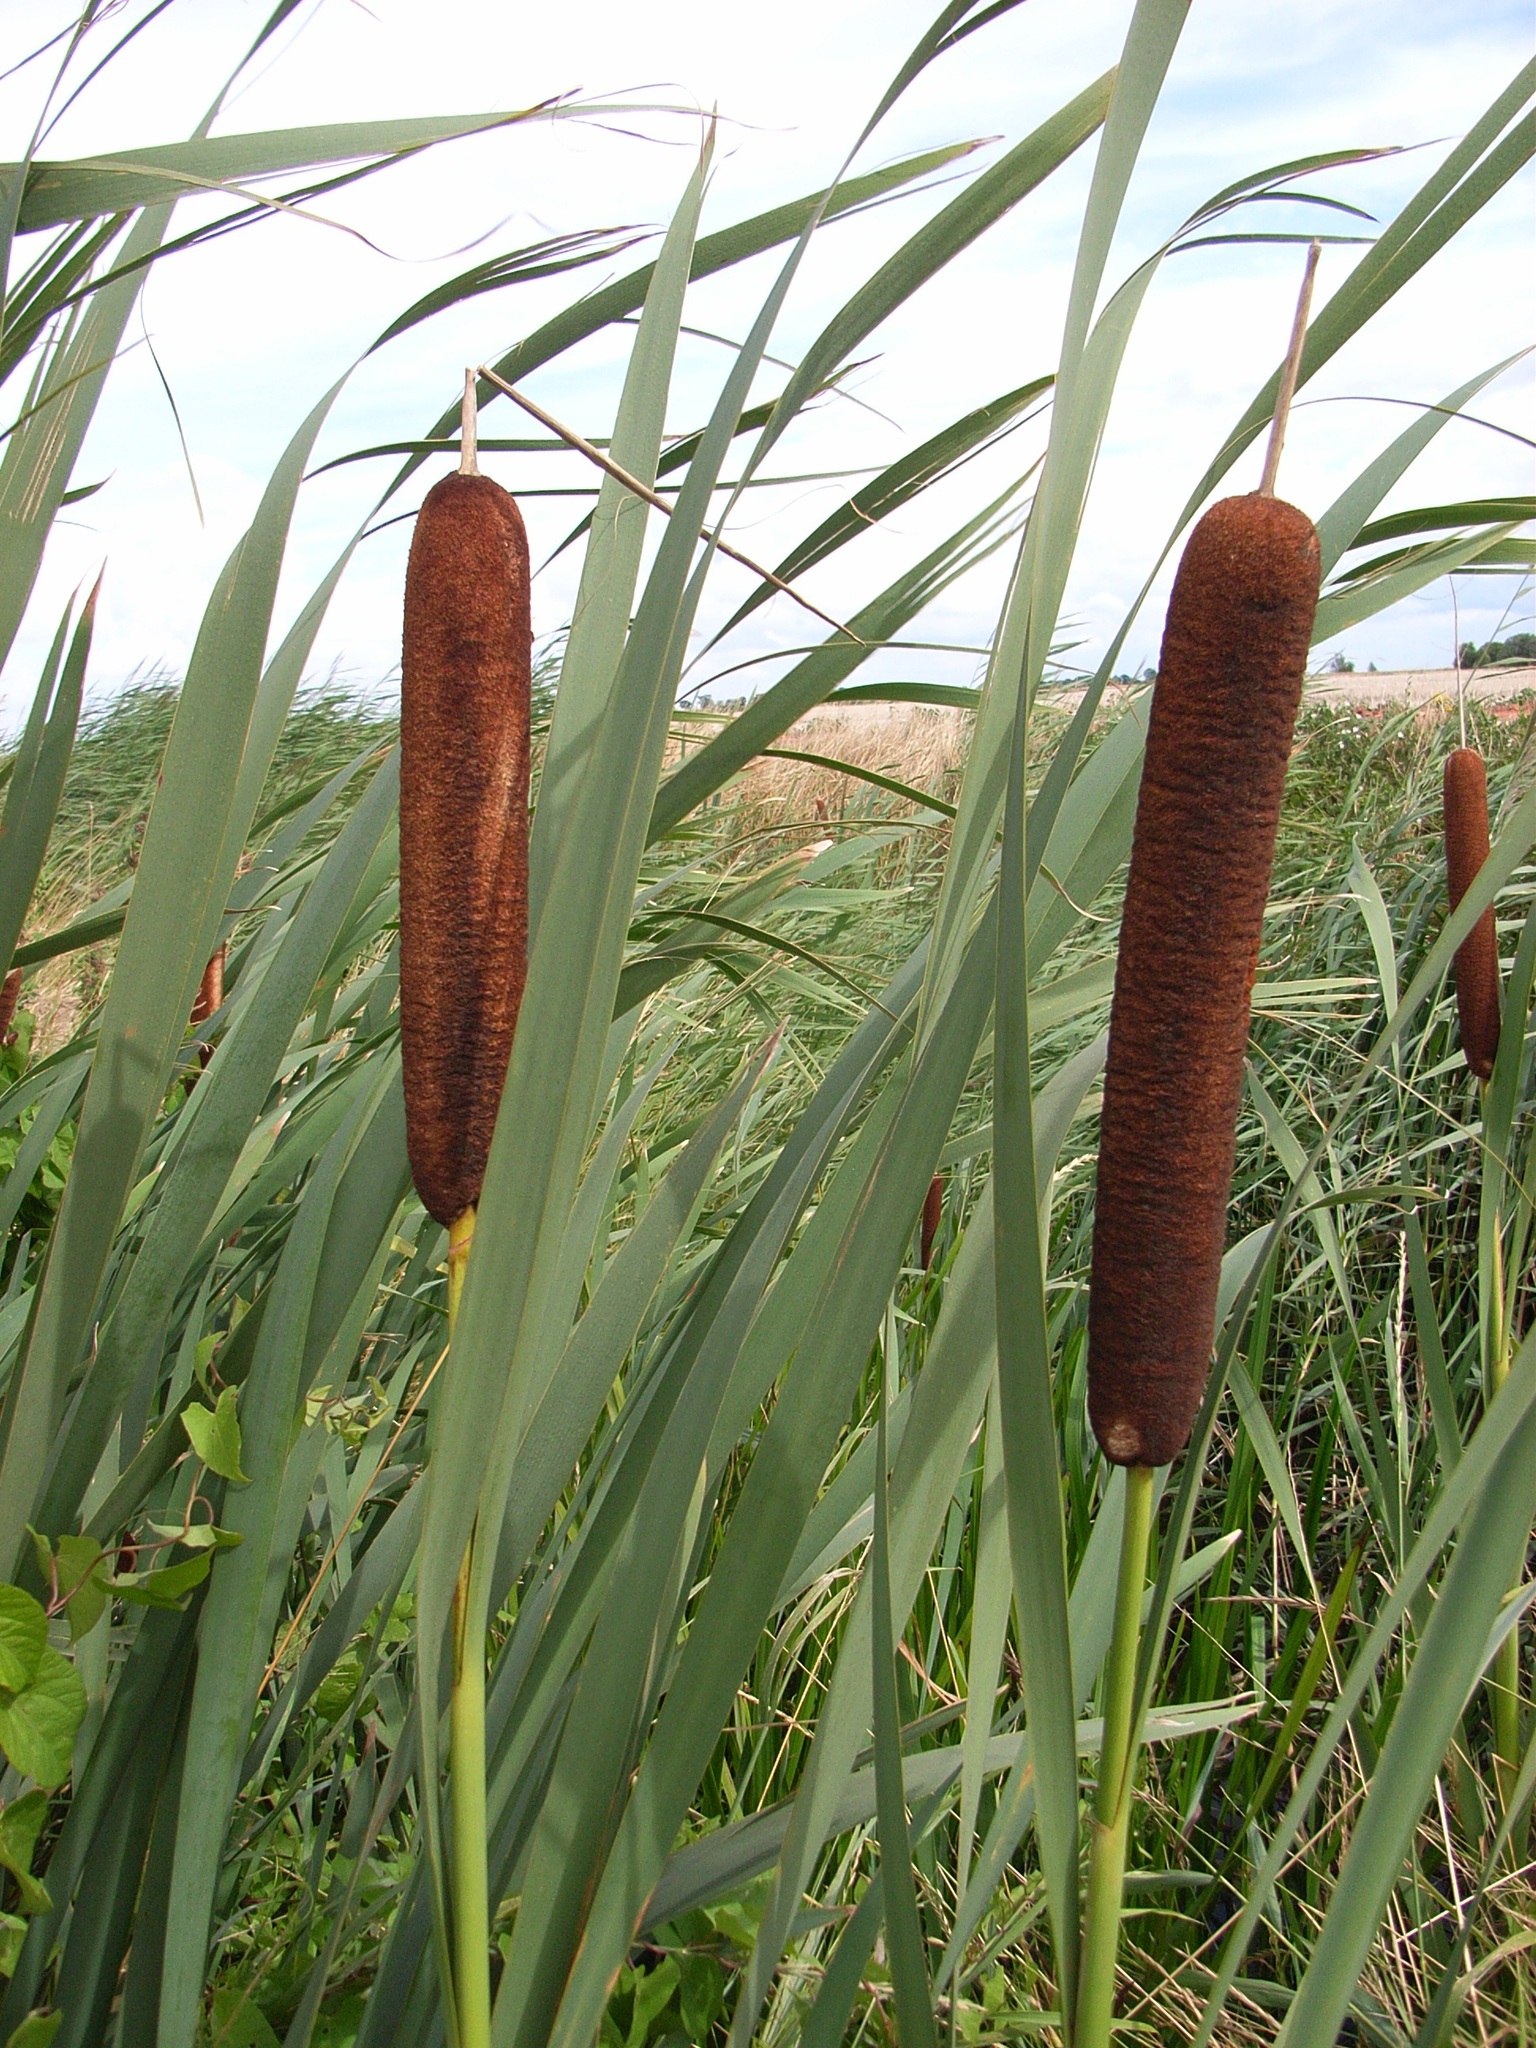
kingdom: Plantae
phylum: Tracheophyta
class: Liliopsida
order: Poales
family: Typhaceae
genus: Typha
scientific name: Typha latifolia
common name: Broadleaf cattail
